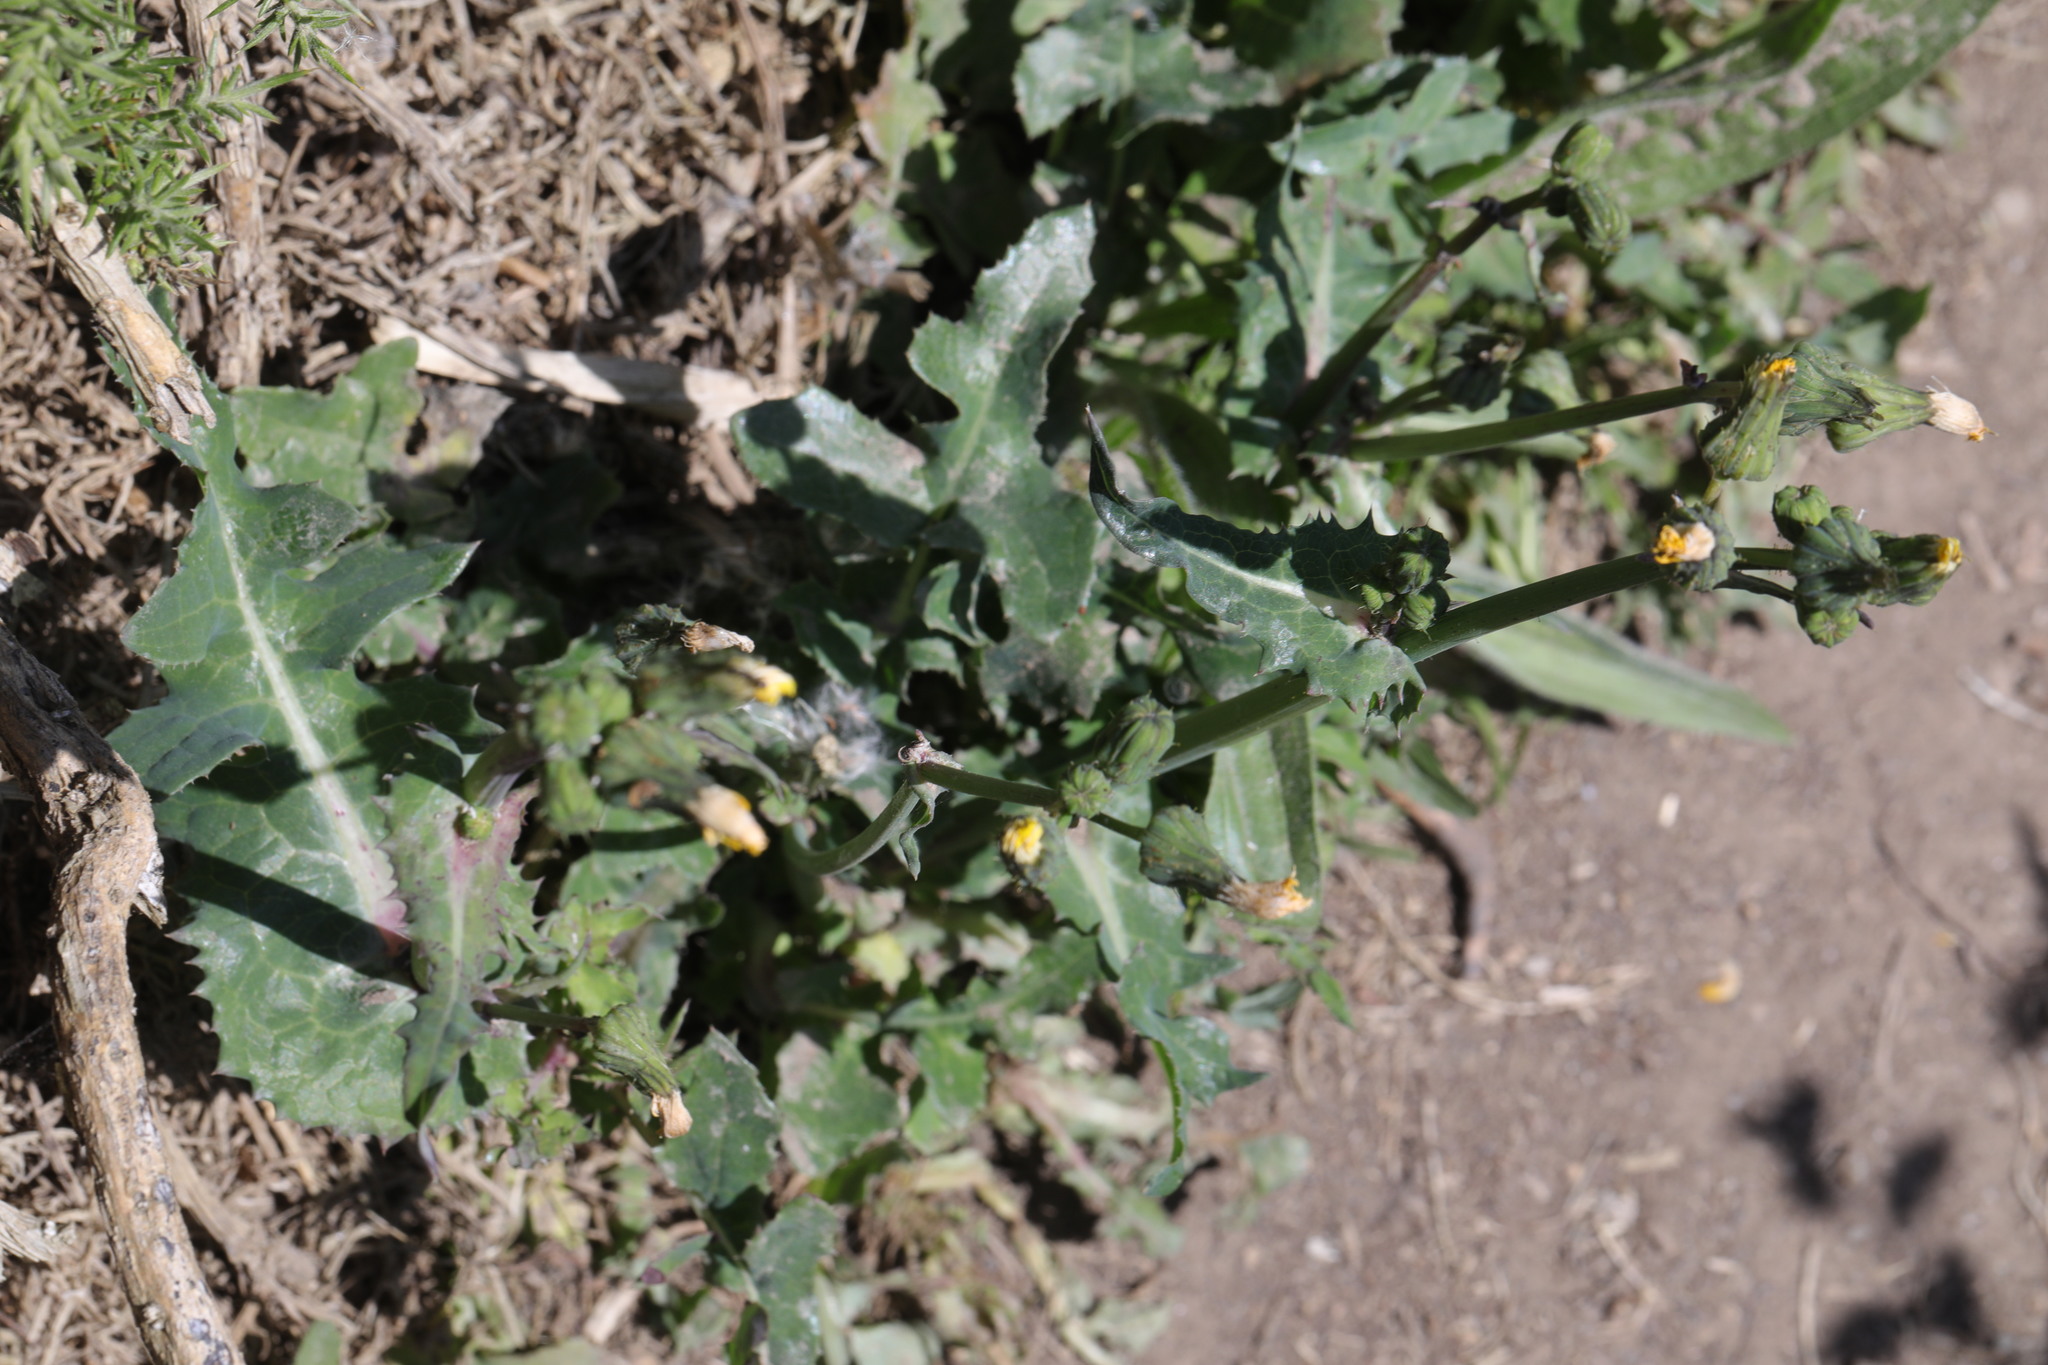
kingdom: Plantae
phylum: Tracheophyta
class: Magnoliopsida
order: Asterales
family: Asteraceae
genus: Sonchus
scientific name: Sonchus oleraceus
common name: Common sowthistle
